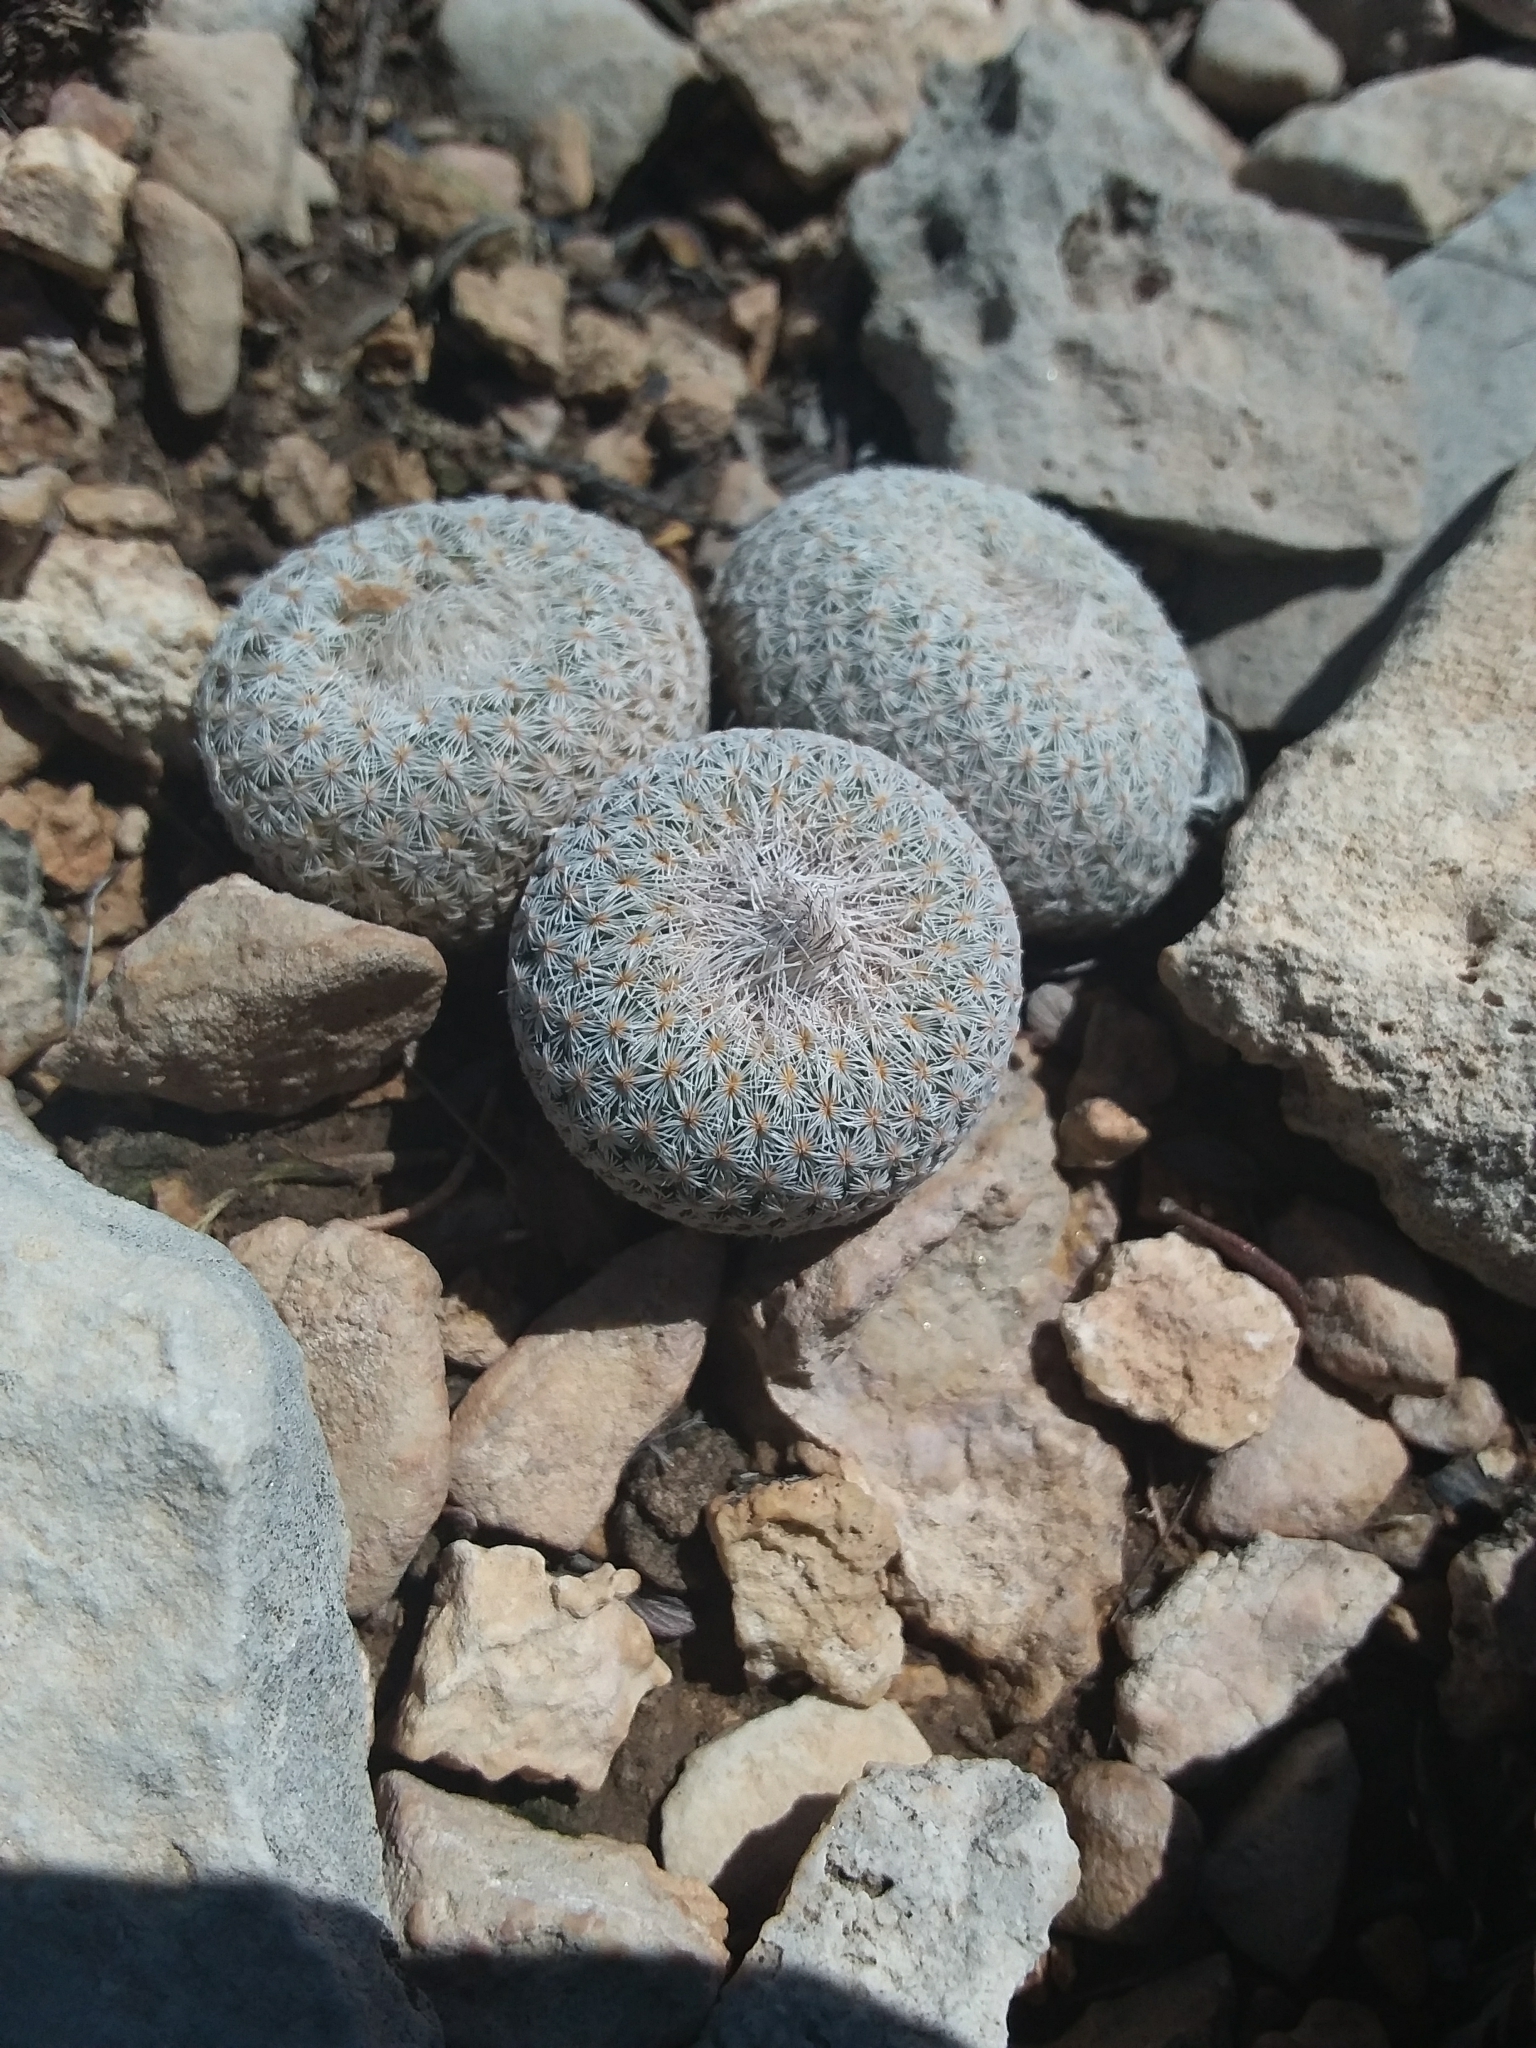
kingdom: Plantae
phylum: Tracheophyta
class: Magnoliopsida
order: Caryophyllales
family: Cactaceae
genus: Epithelantha
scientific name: Epithelantha micromeris
